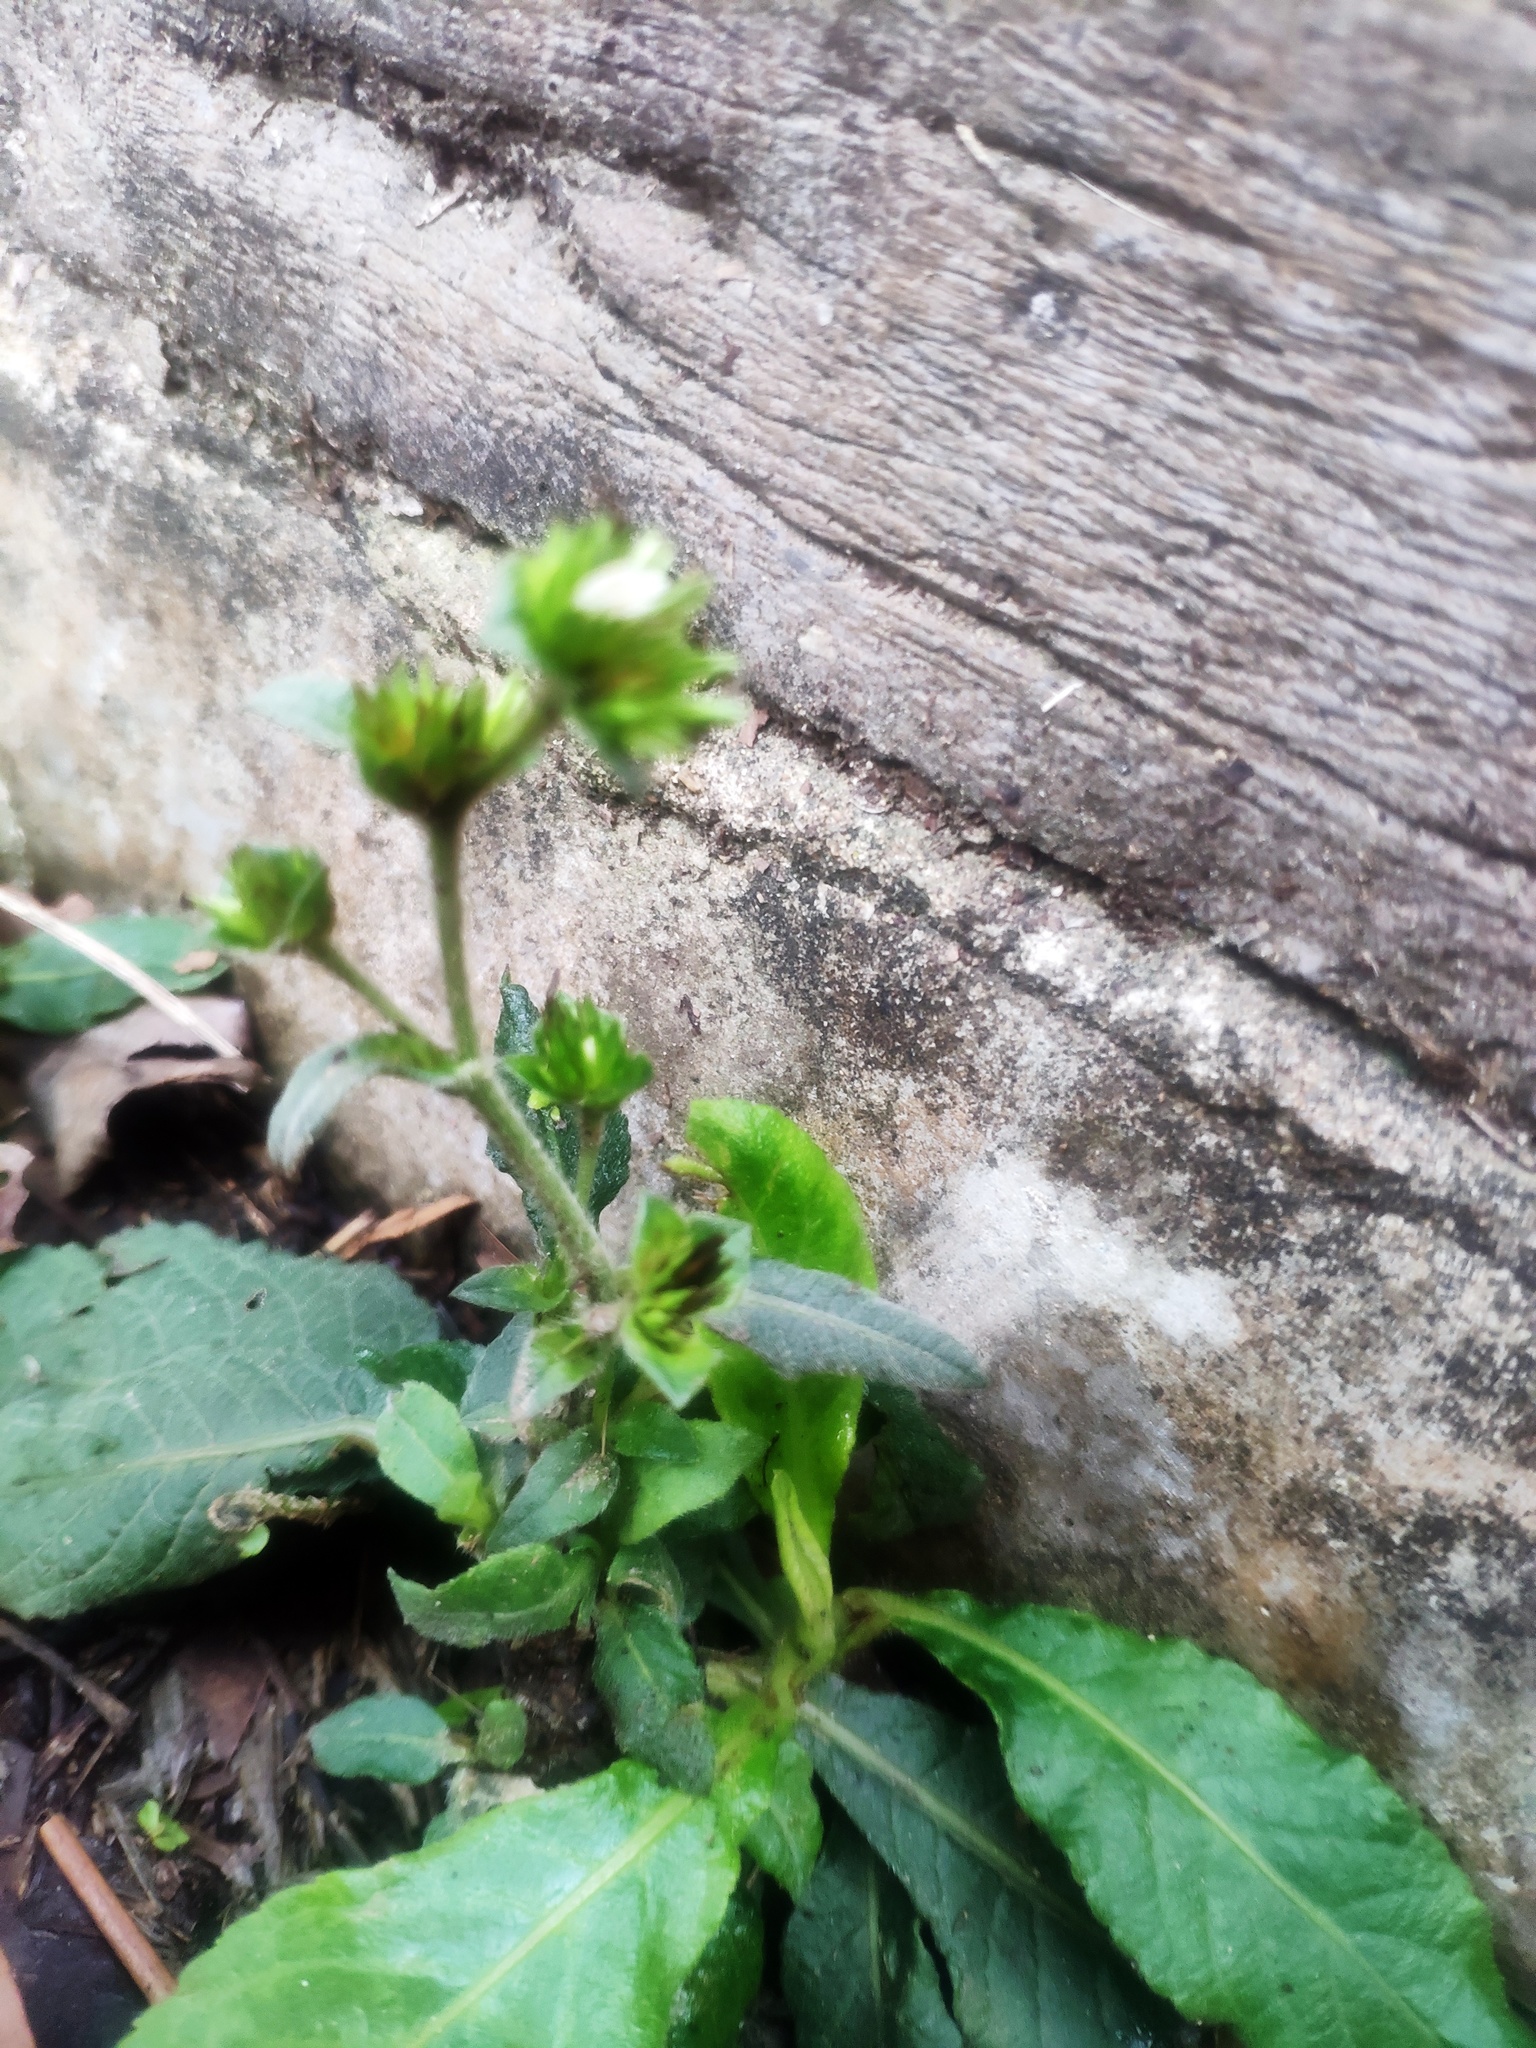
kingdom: Plantae
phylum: Tracheophyta
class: Magnoliopsida
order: Asterales
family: Asteraceae
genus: Elephantopus
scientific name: Elephantopus mollis
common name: Soft elephantsfoot
